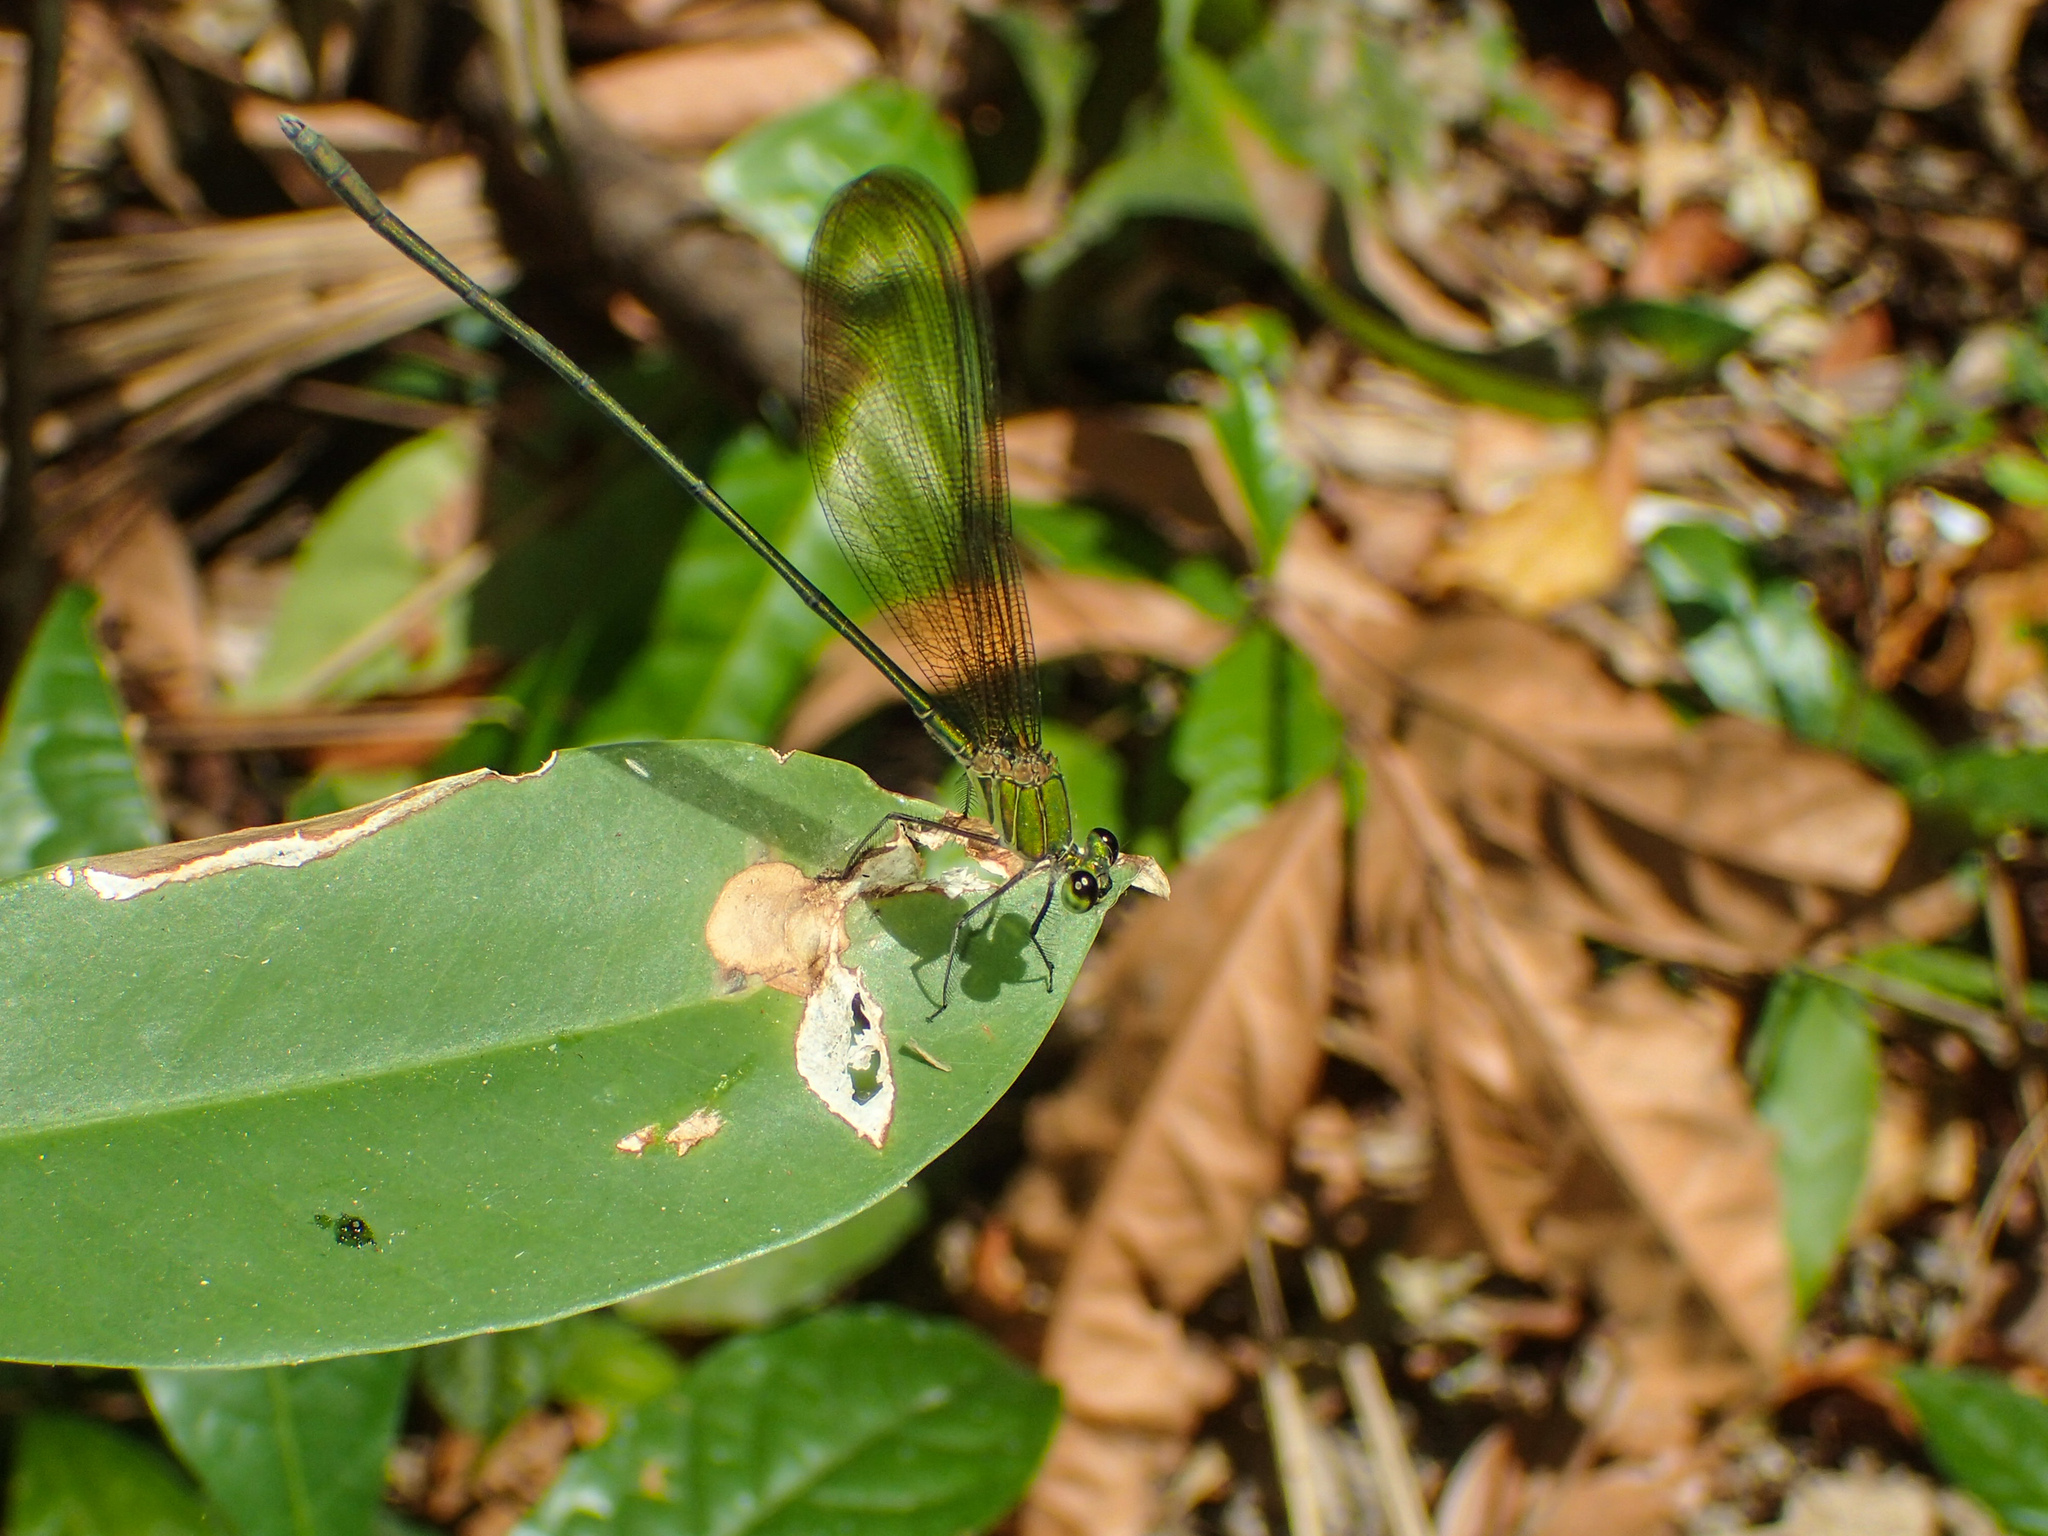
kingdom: Animalia
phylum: Arthropoda
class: Insecta
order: Odonata
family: Calopterygidae
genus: Vestalis
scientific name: Vestalis gracilis
